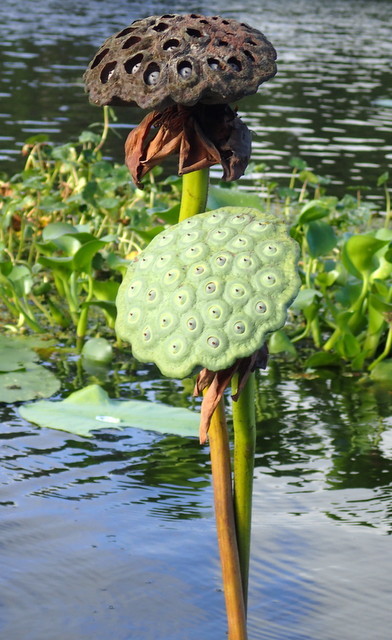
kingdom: Plantae
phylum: Tracheophyta
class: Magnoliopsida
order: Proteales
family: Nelumbonaceae
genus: Nelumbo
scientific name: Nelumbo lutea
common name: American lotus
